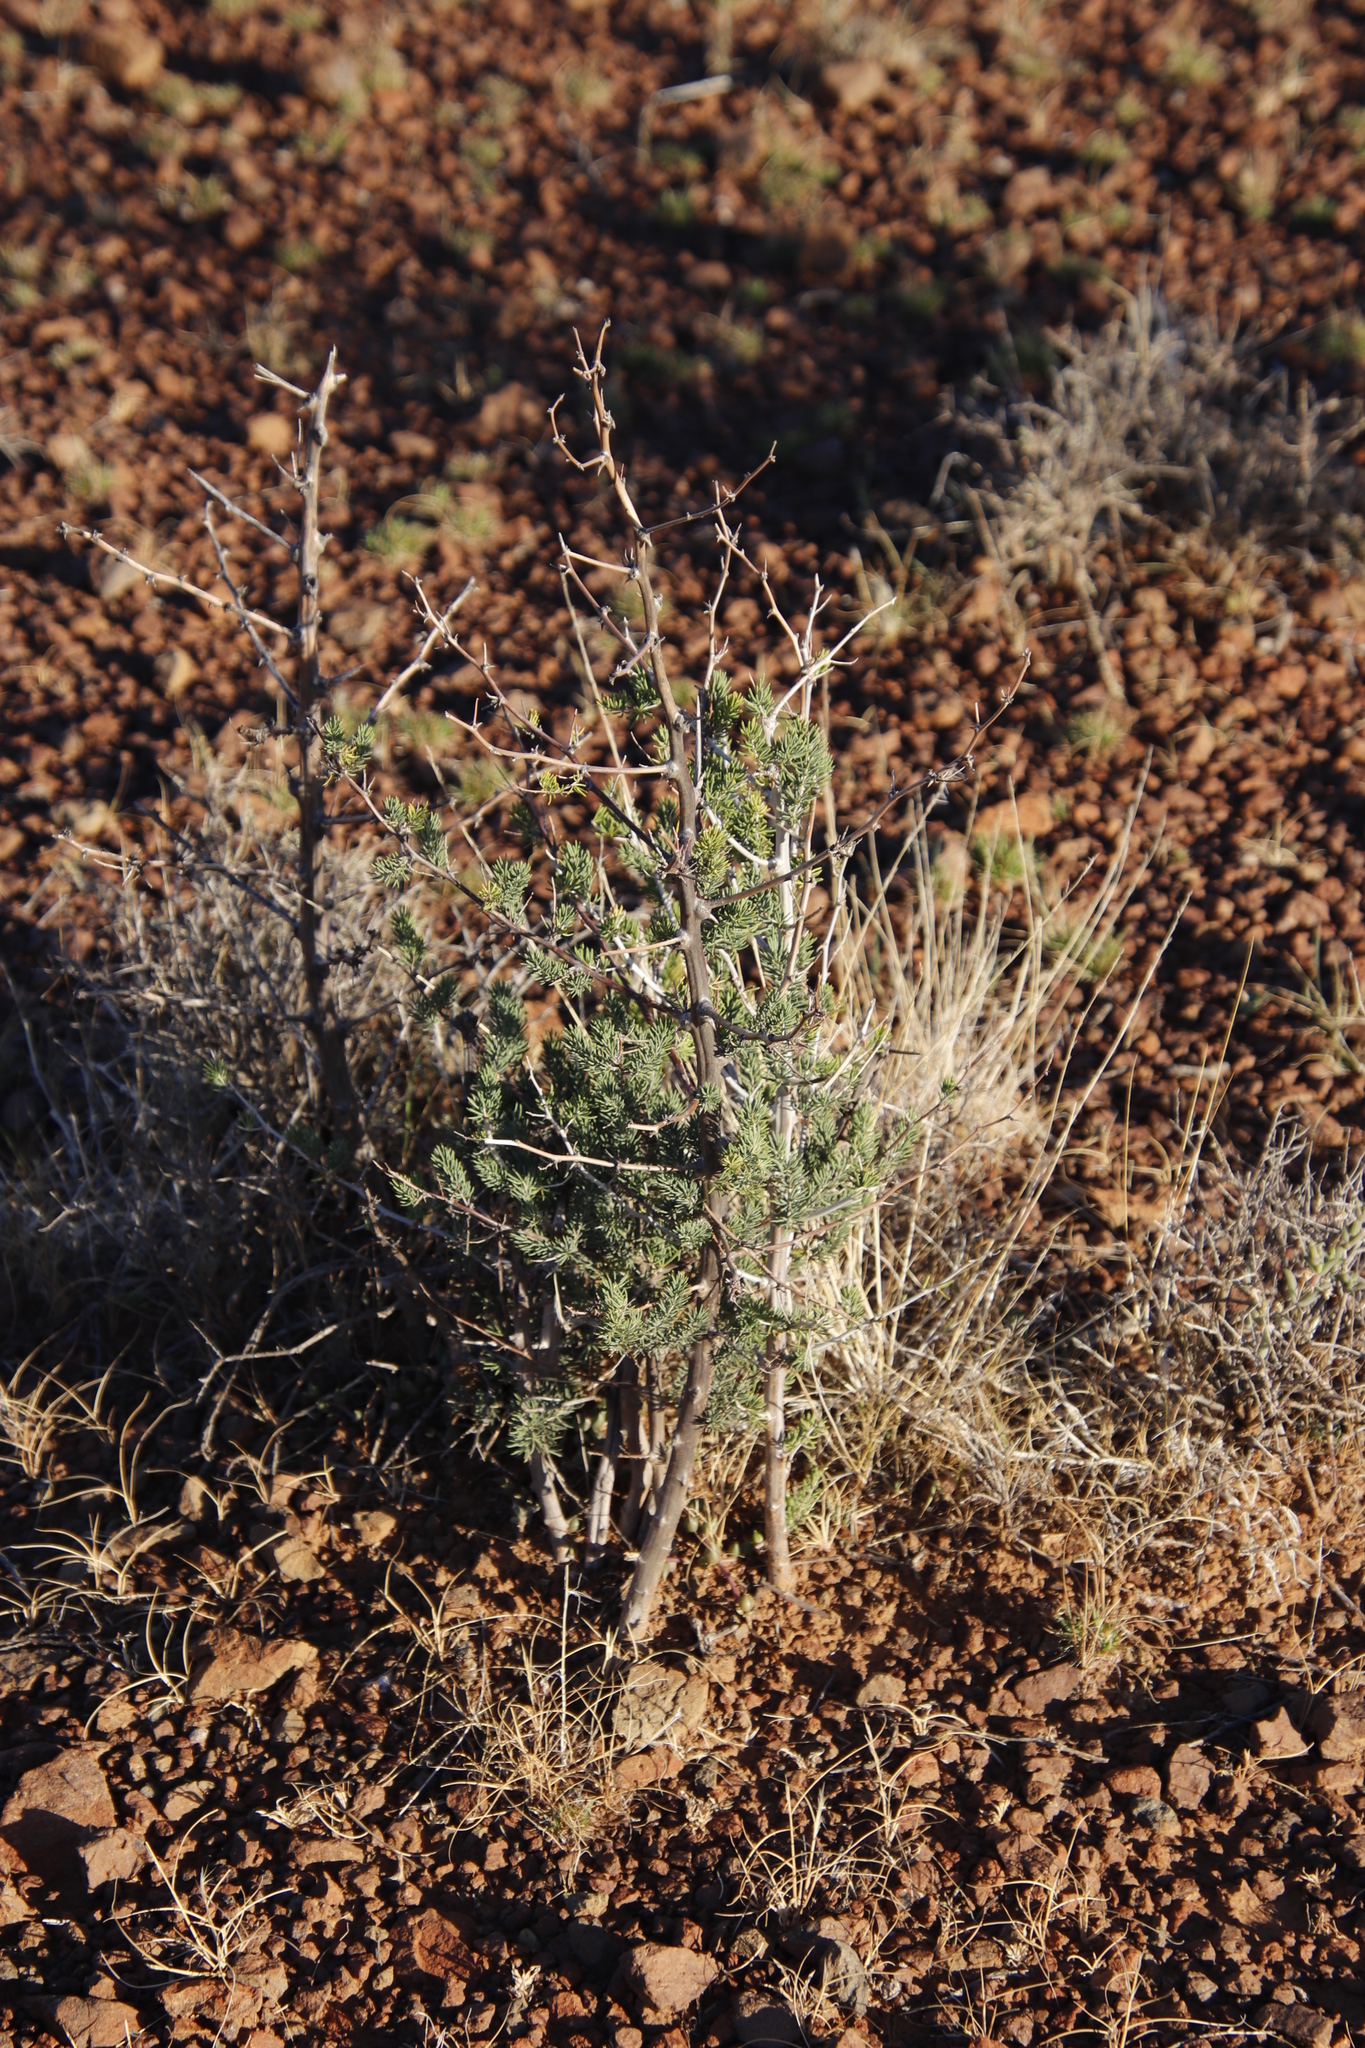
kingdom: Plantae
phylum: Tracheophyta
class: Liliopsida
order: Asparagales
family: Asparagaceae
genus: Asparagus
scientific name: Asparagus mucronatus
